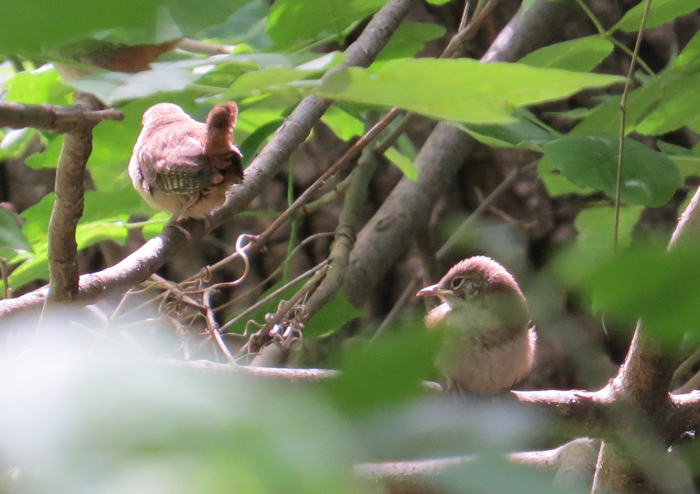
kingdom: Animalia
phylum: Chordata
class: Aves
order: Passeriformes
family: Troglodytidae
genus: Troglodytes
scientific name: Troglodytes aedon
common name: House wren
